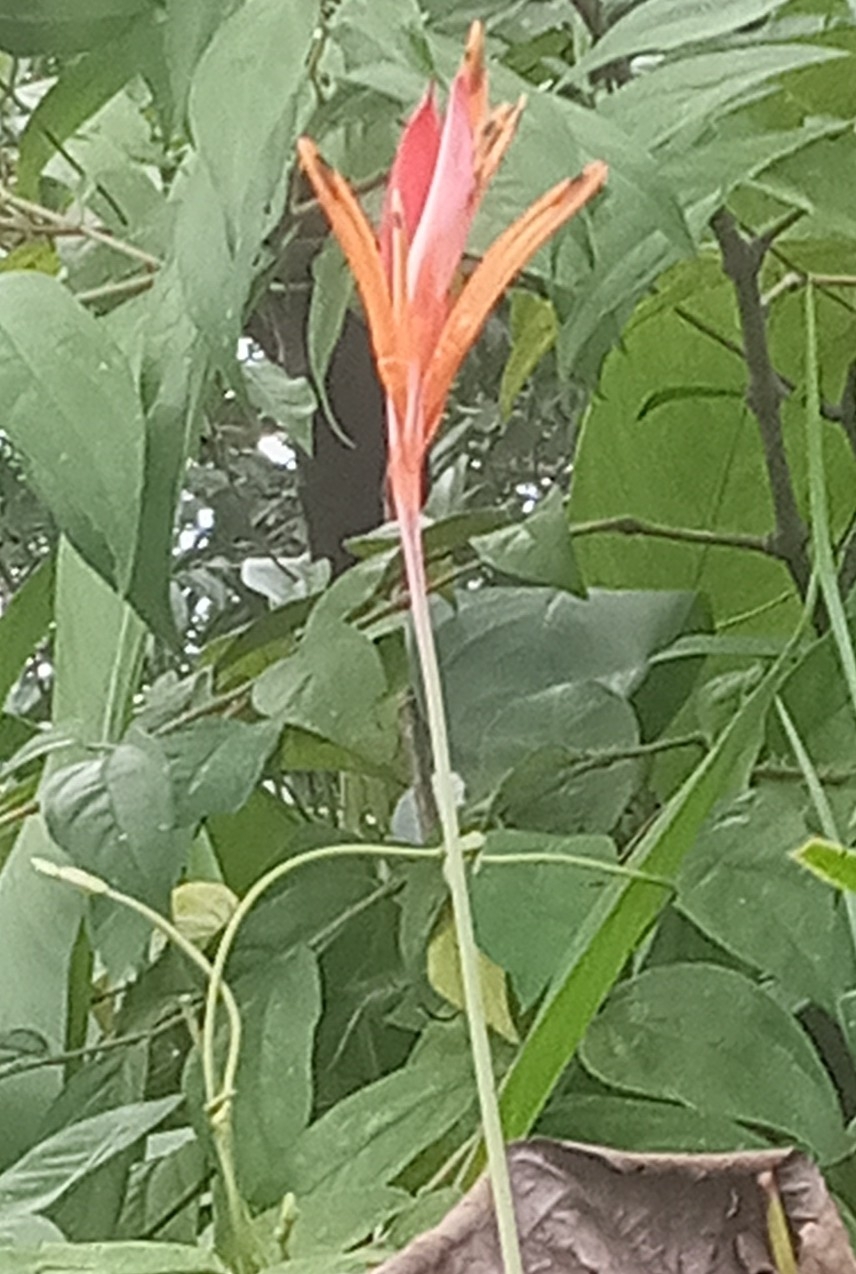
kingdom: Plantae
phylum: Tracheophyta
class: Liliopsida
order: Zingiberales
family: Heliconiaceae
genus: Heliconia
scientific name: Heliconia psittacorum
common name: Parrot's-flower
